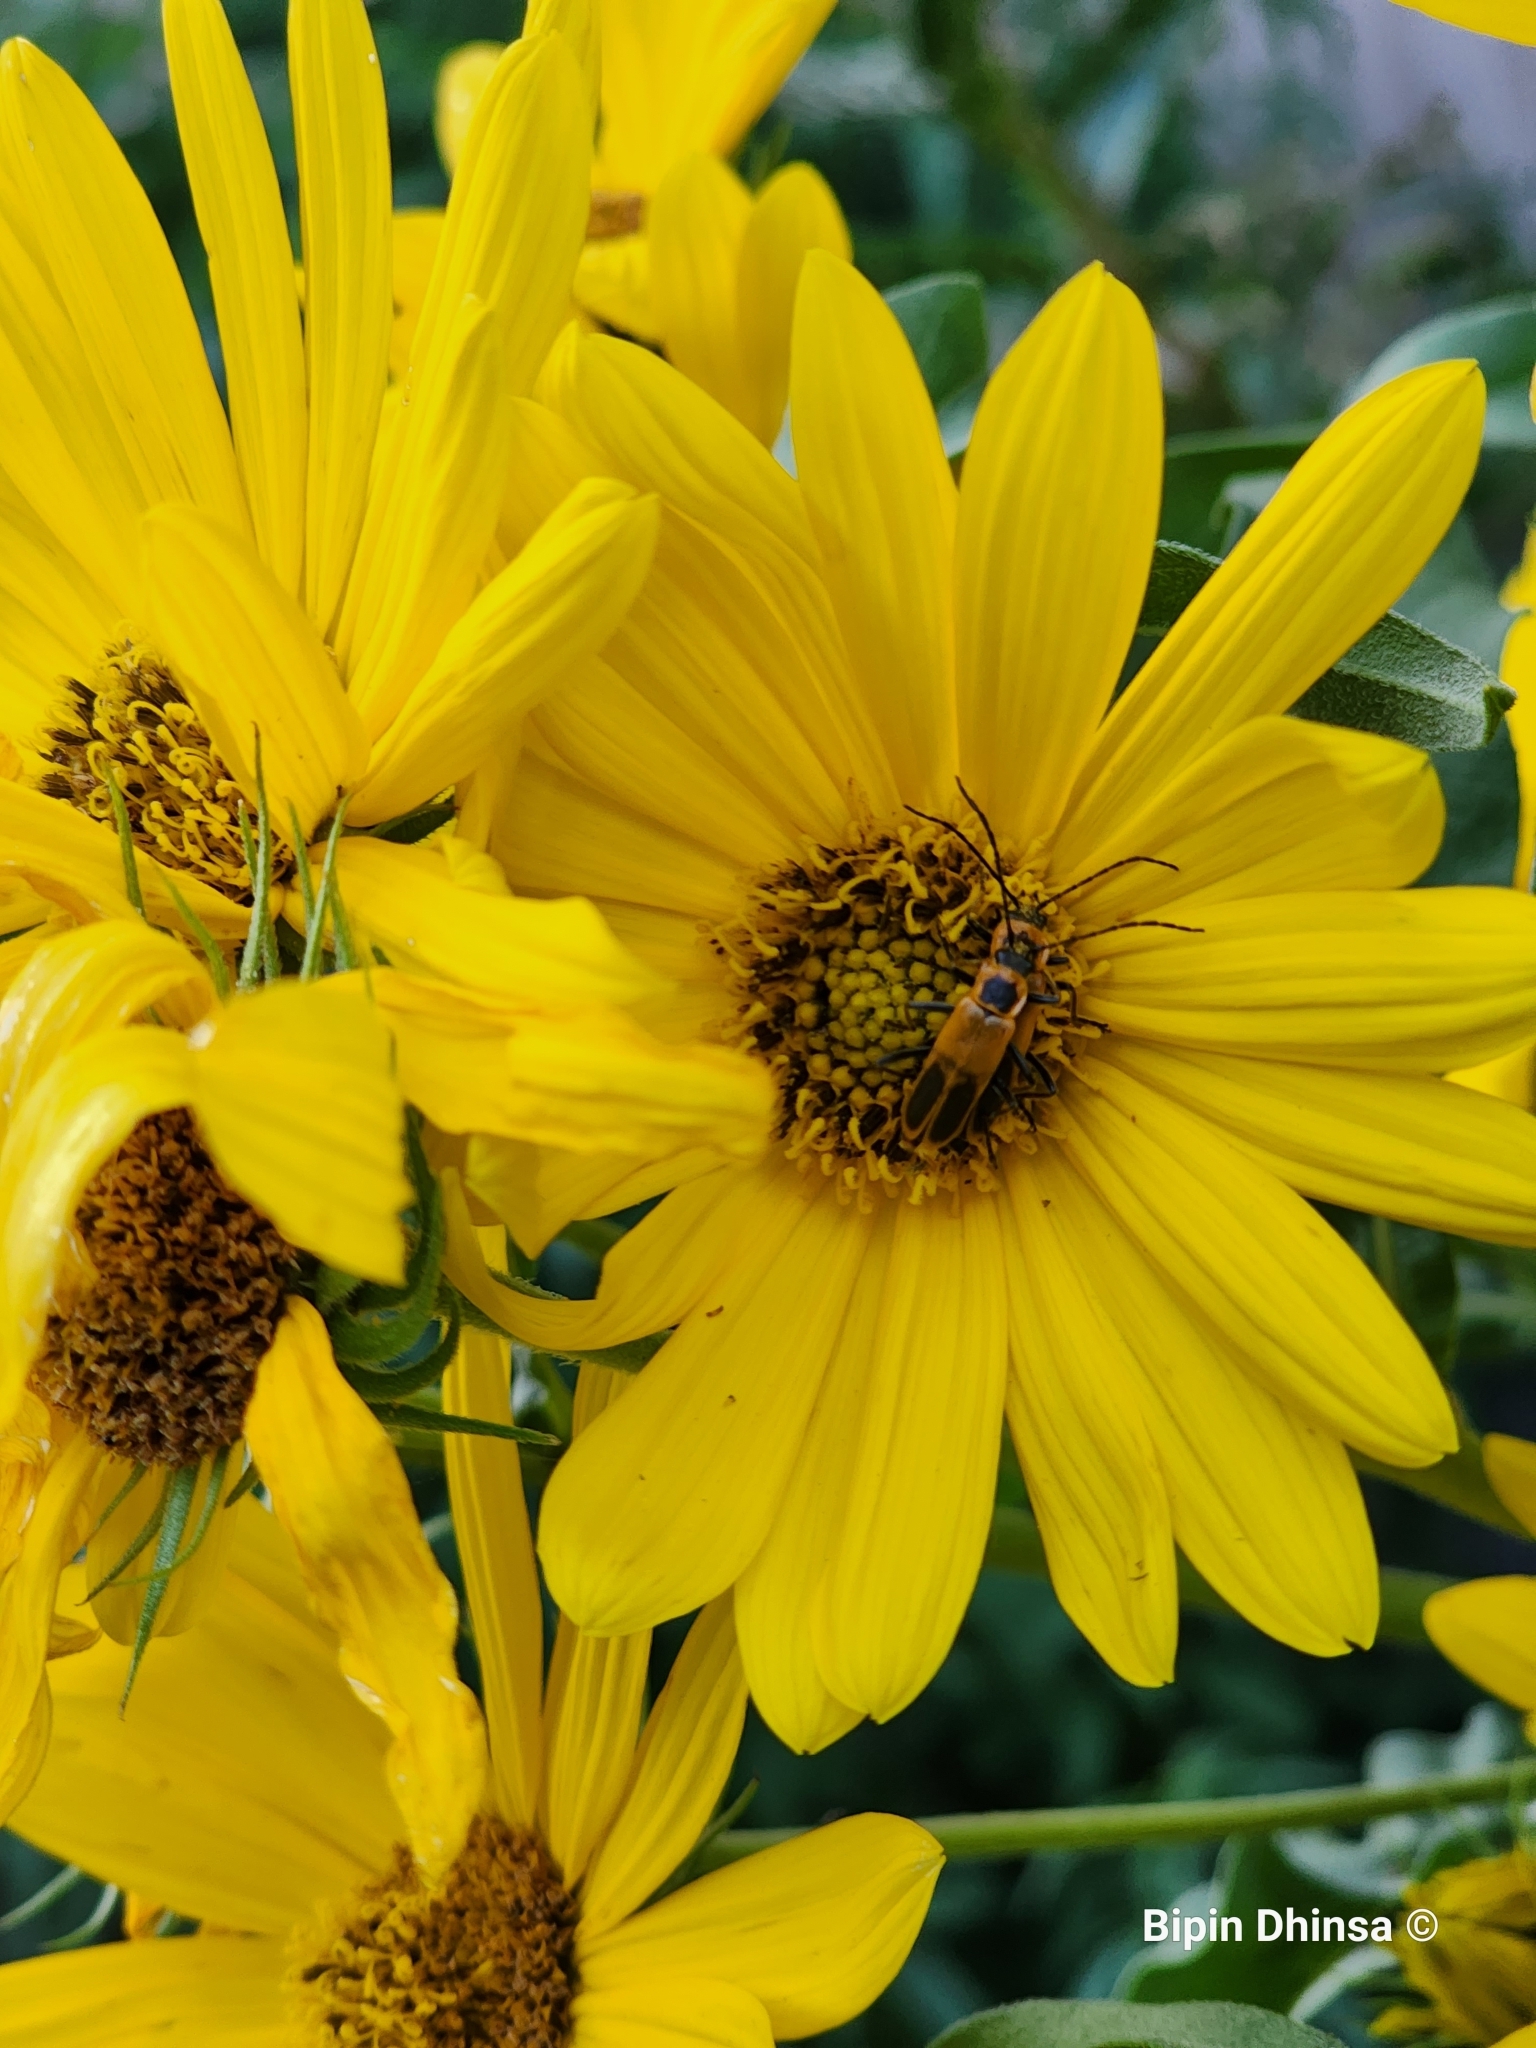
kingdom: Animalia
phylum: Arthropoda
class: Insecta
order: Coleoptera
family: Cantharidae
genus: Chauliognathus
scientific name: Chauliognathus pensylvanicus
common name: Goldenrod soldier beetle
